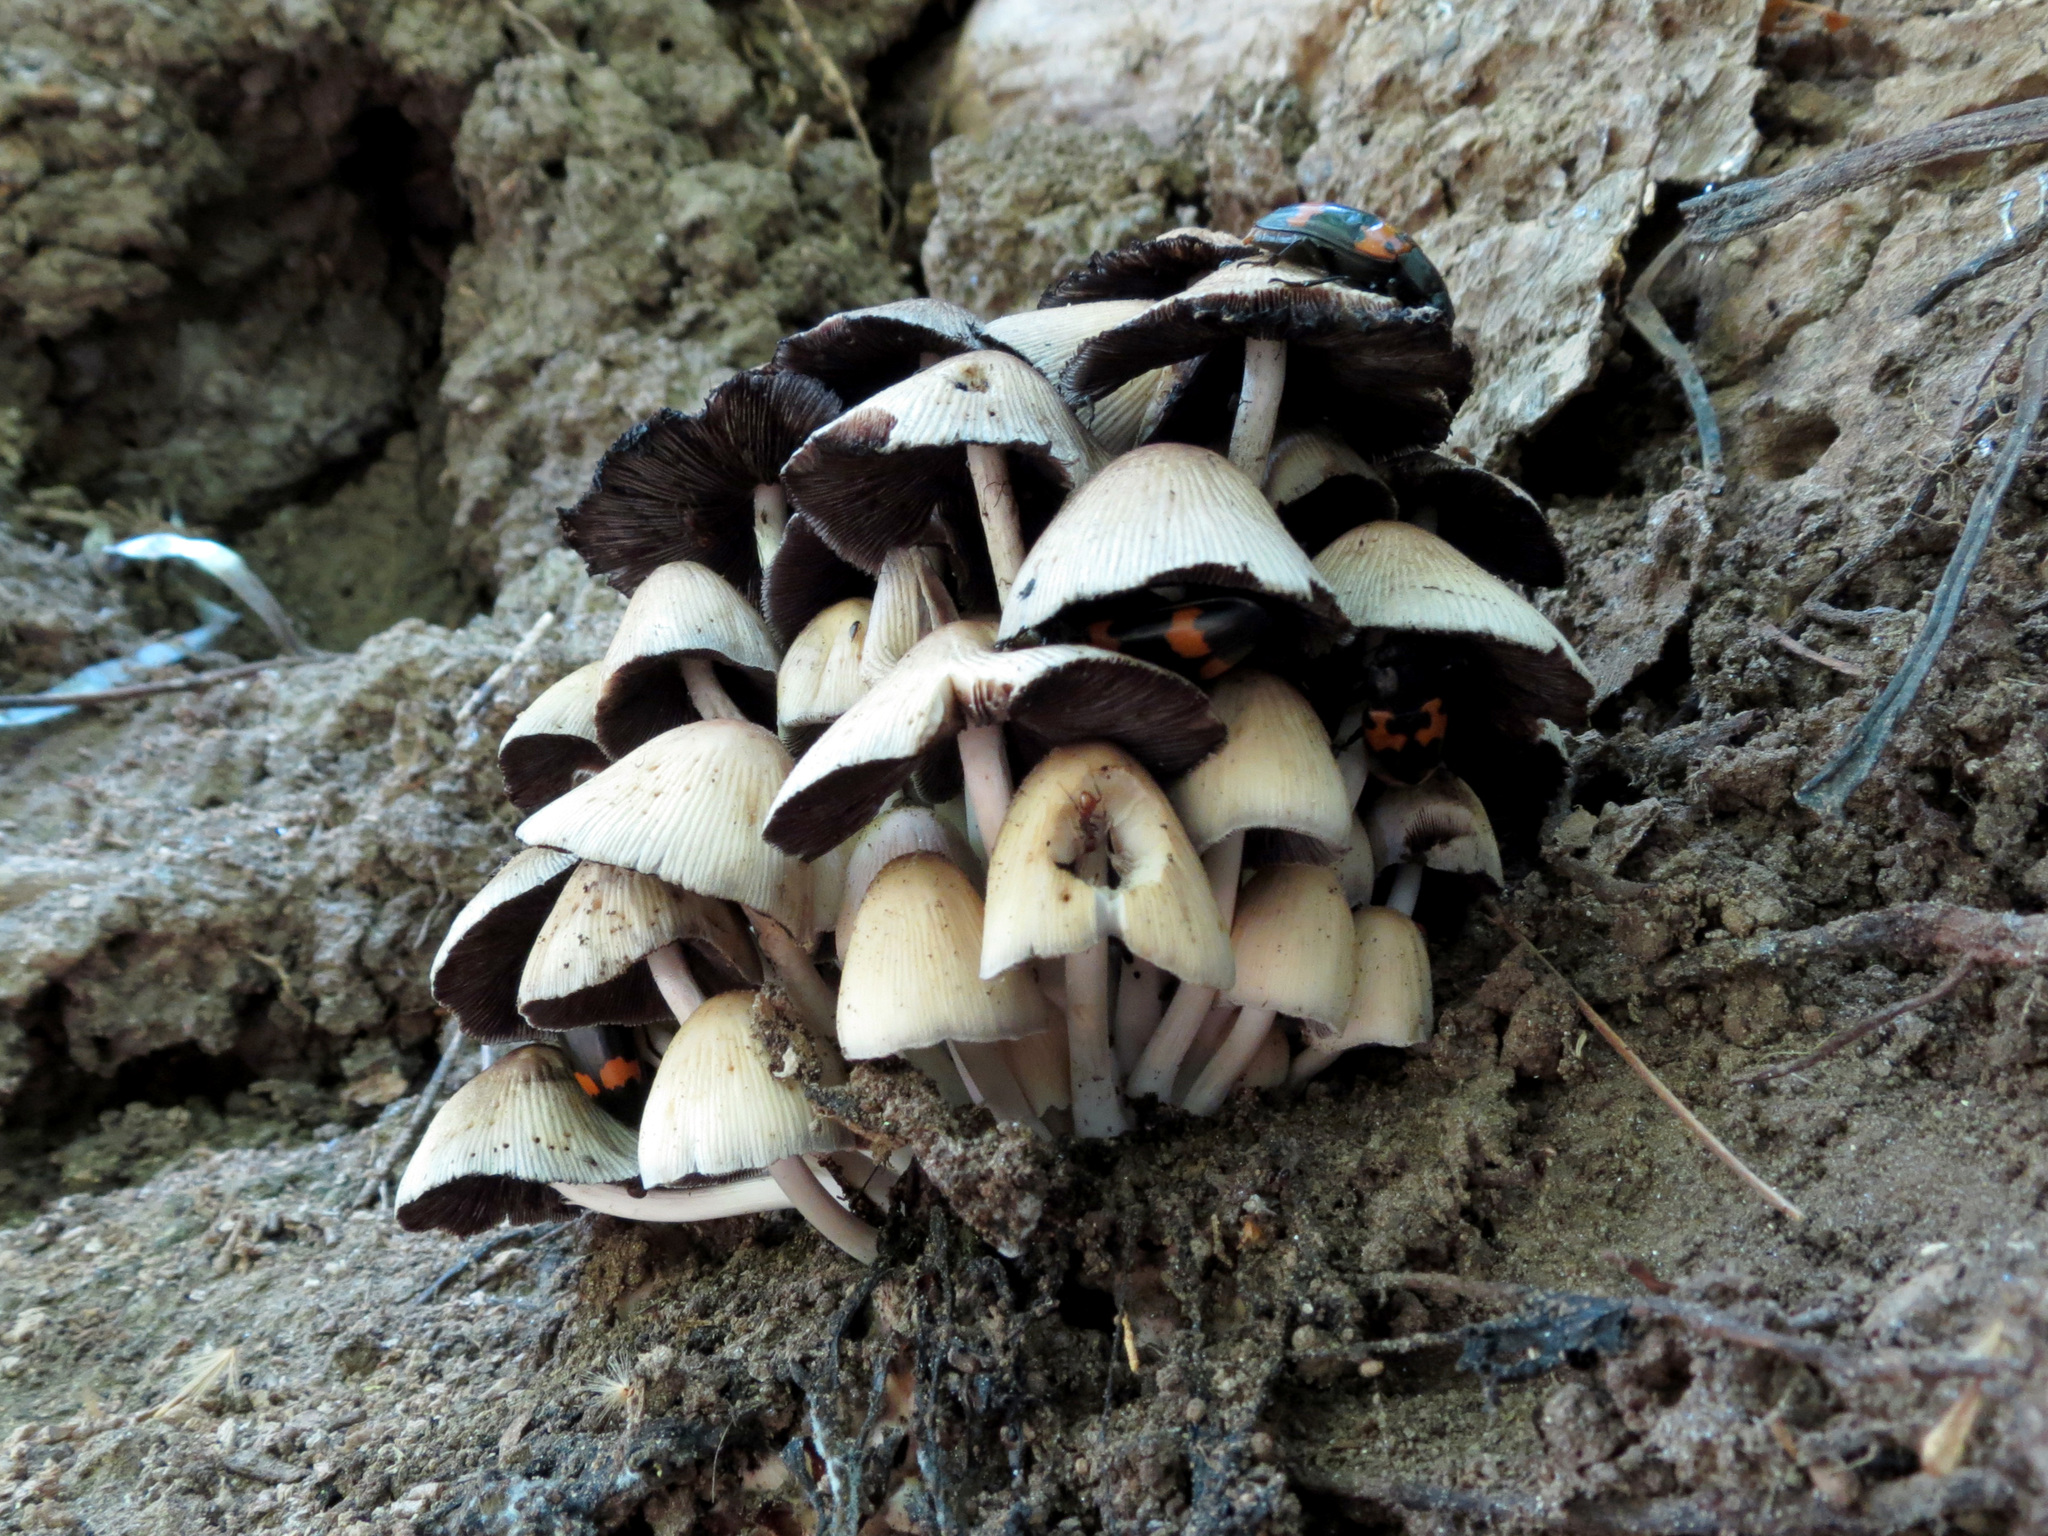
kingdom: Fungi
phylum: Basidiomycota
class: Agaricomycetes
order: Agaricales
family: Psathyrellaceae
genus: Coprinellus
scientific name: Coprinellus micaceus
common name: Glistening ink-cap
